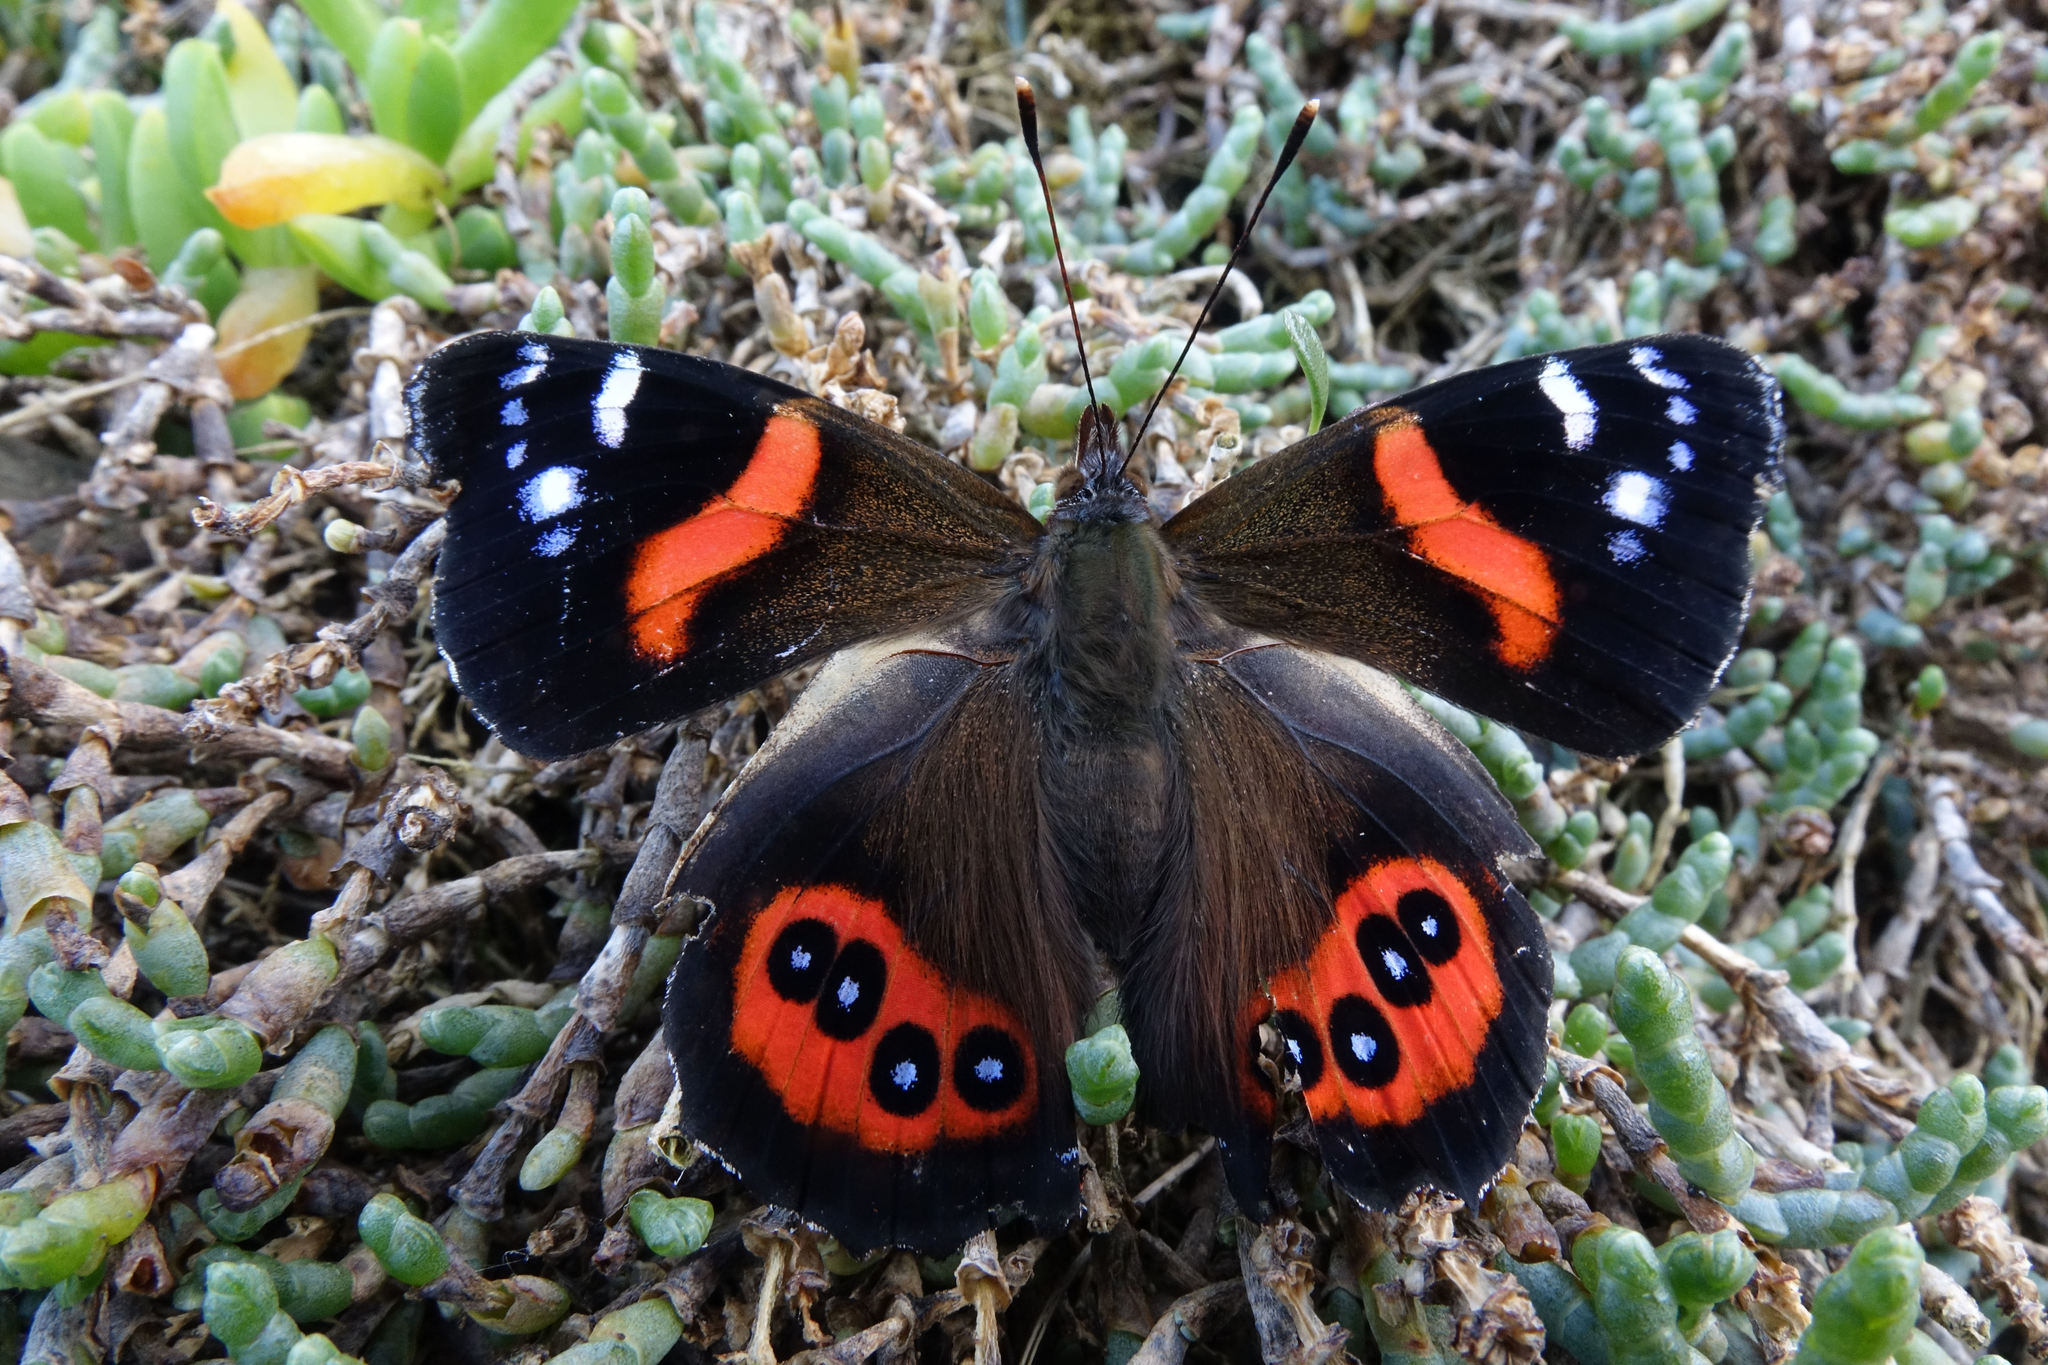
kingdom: Animalia
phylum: Arthropoda
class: Insecta
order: Lepidoptera
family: Nymphalidae
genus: Vanessa
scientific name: Vanessa gonerilla
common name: New zealand red admiral
